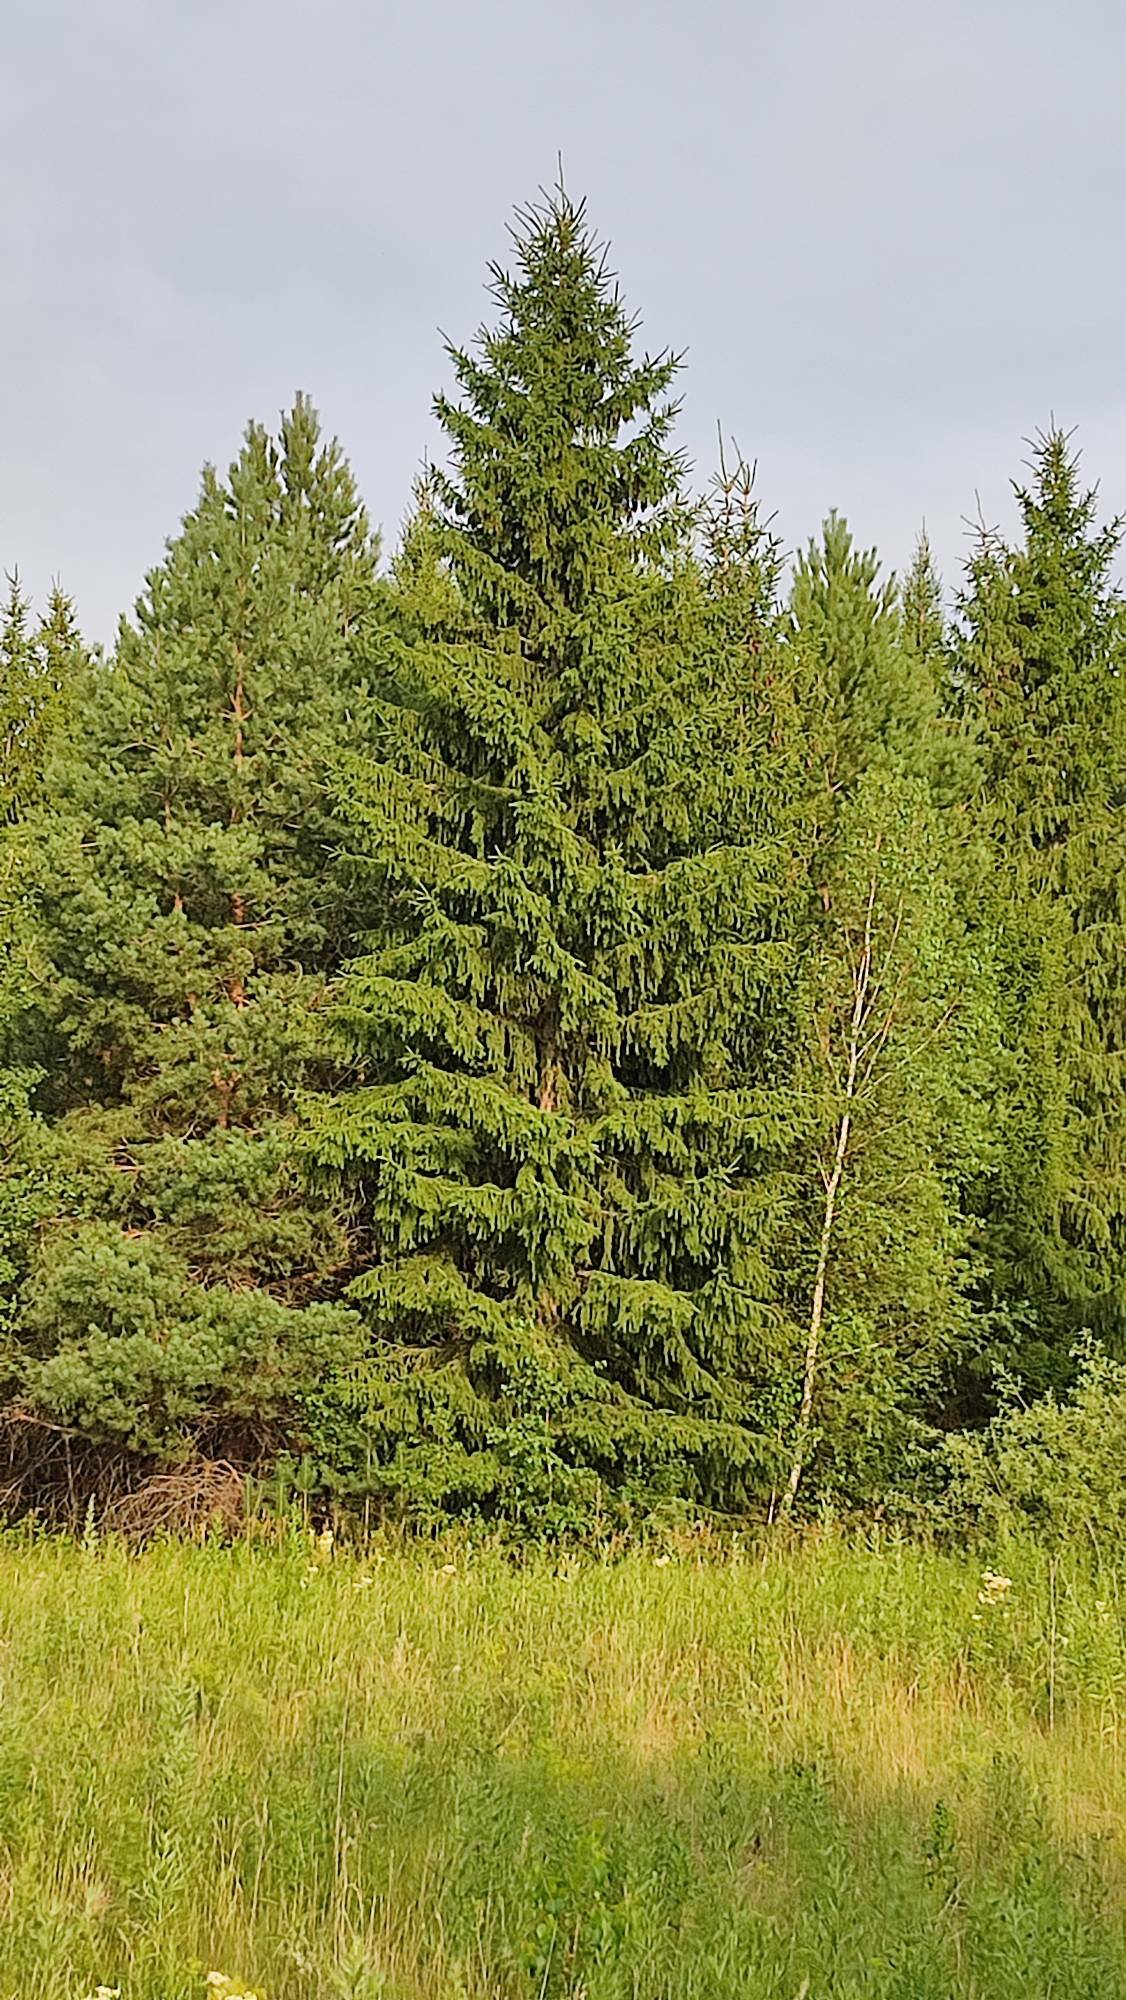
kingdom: Plantae
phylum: Tracheophyta
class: Pinopsida
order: Pinales
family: Pinaceae
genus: Picea
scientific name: Picea obovata
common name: Siberian spruce
